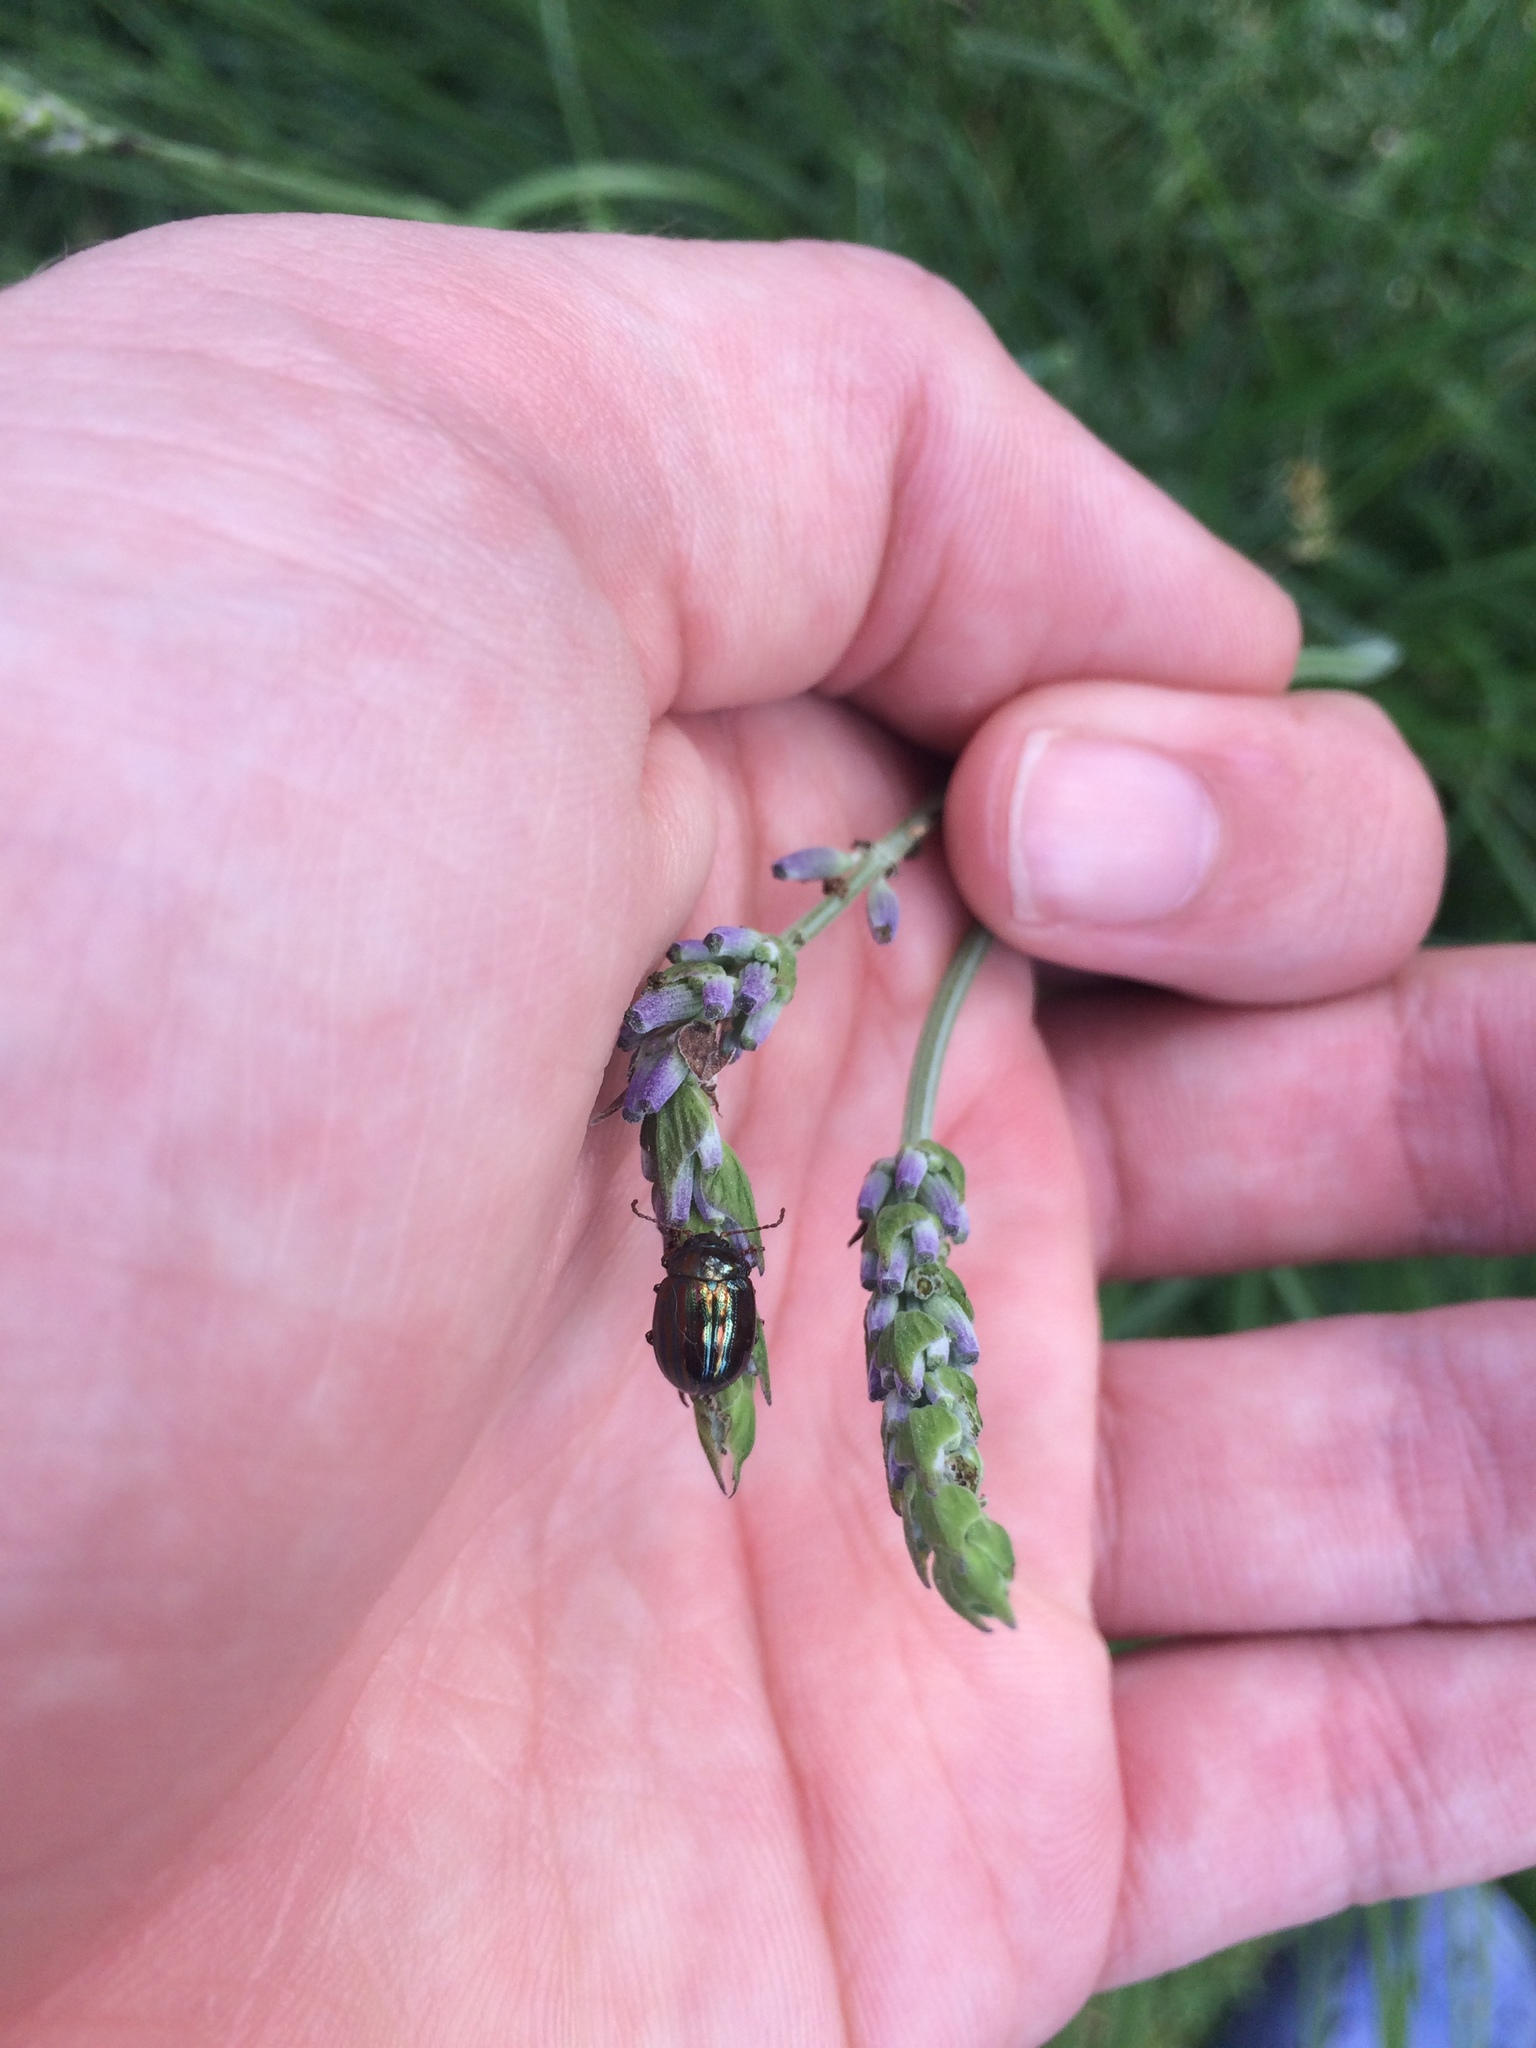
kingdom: Animalia
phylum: Arthropoda
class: Insecta
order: Coleoptera
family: Chrysomelidae
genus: Chrysolina
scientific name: Chrysolina americana
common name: Rosemary beetle
